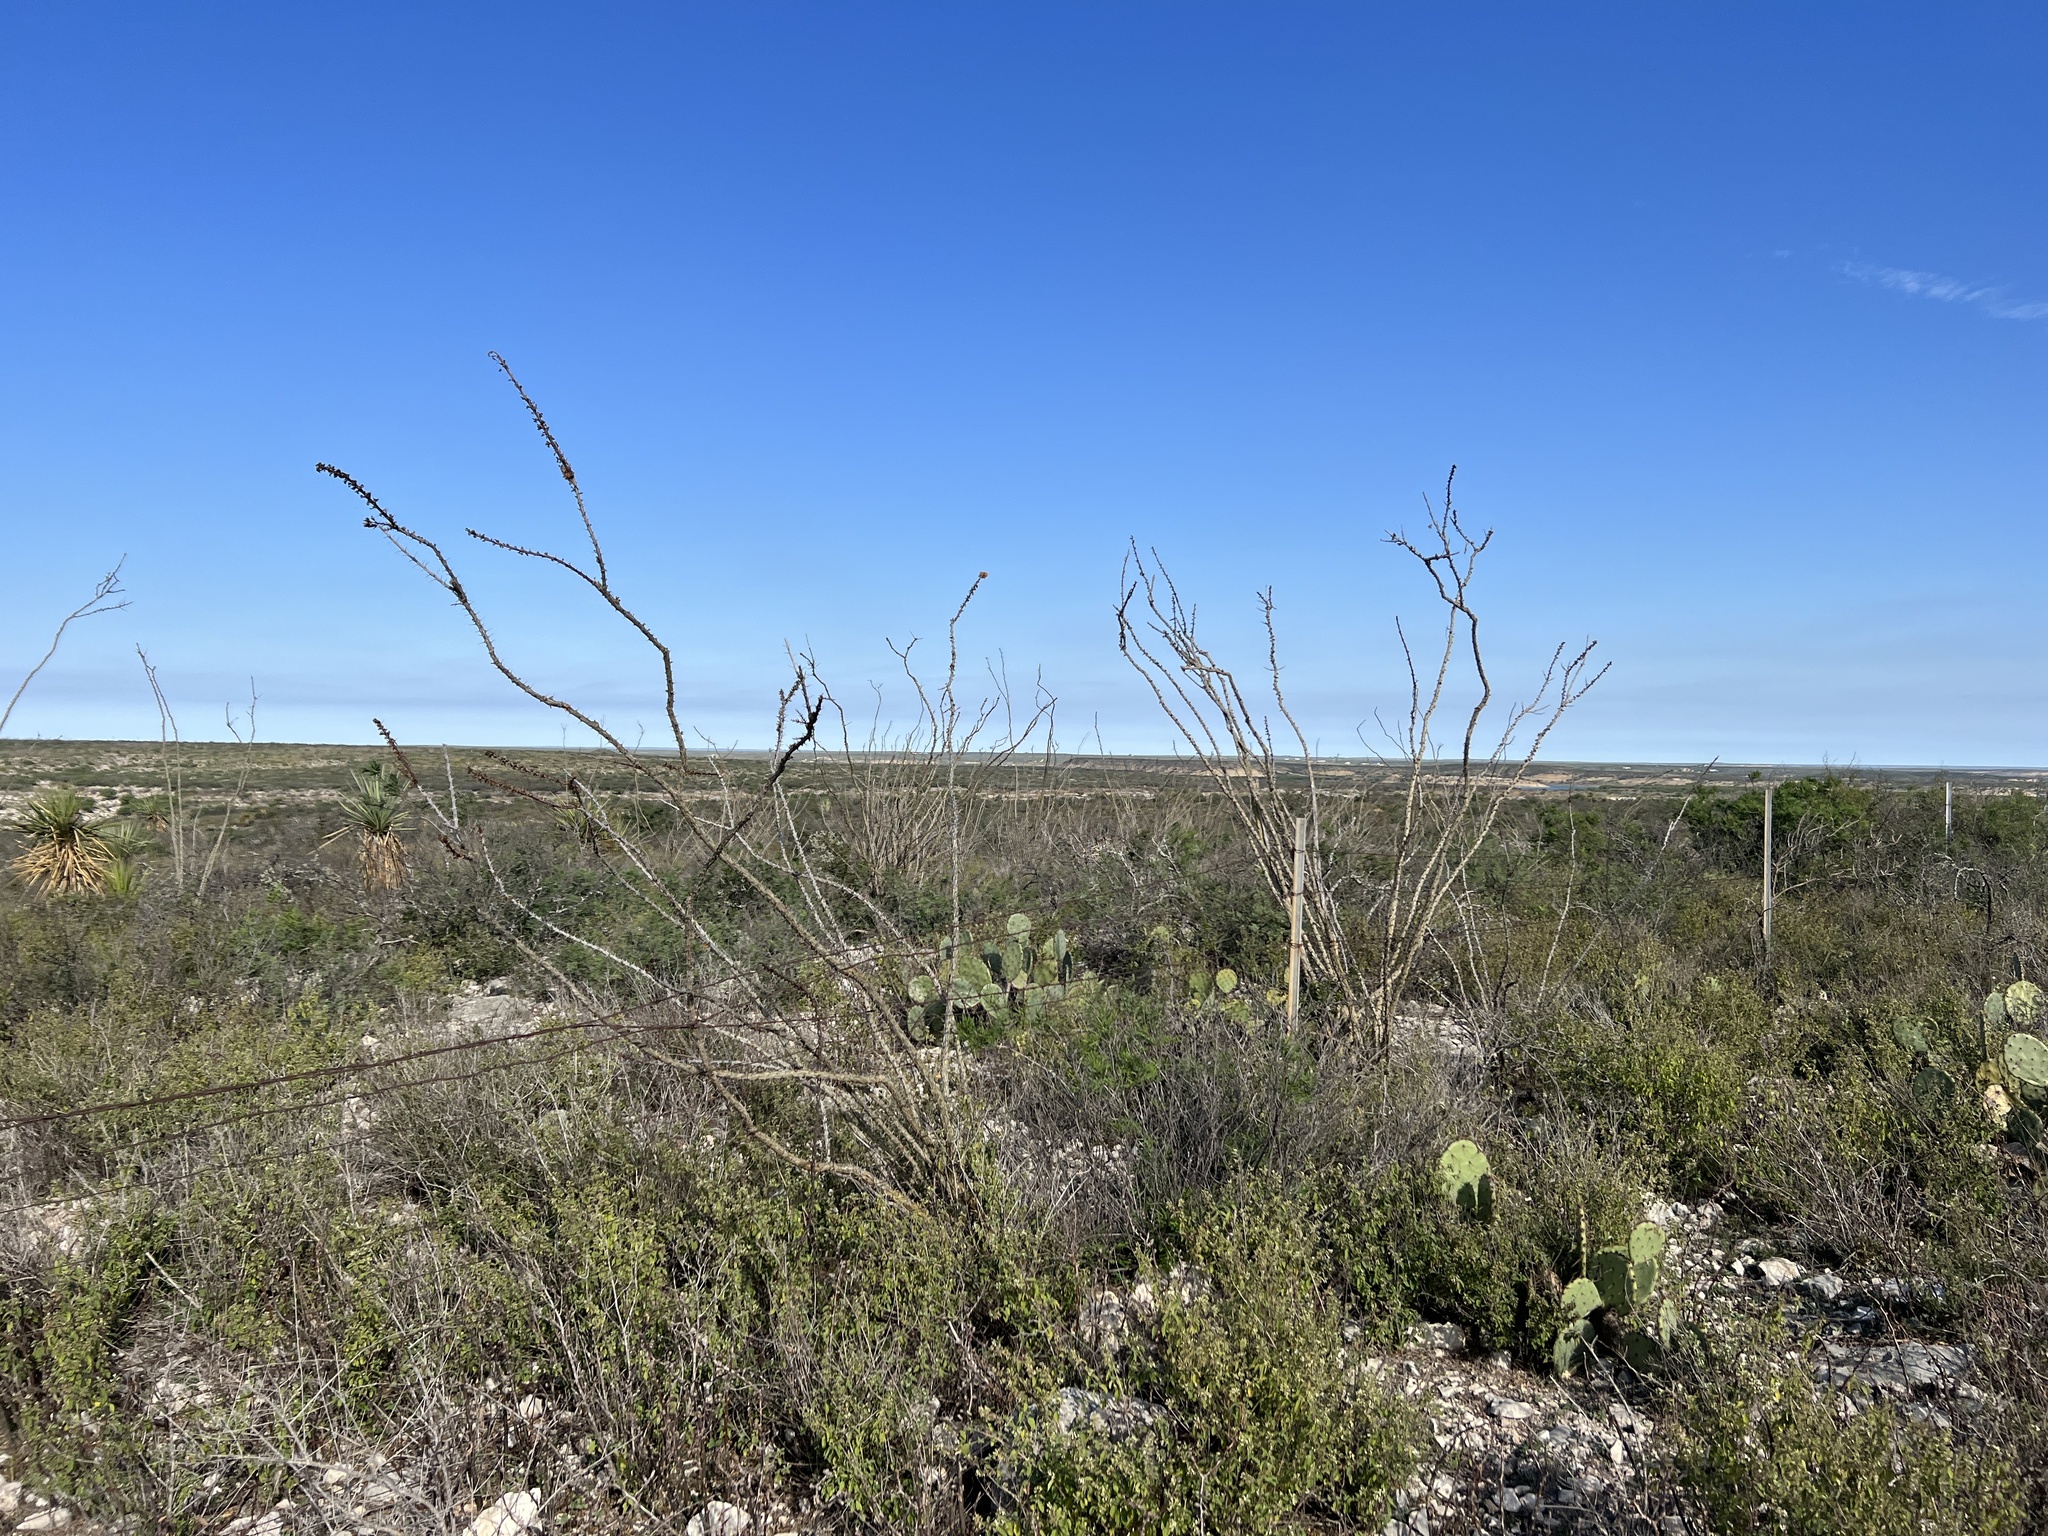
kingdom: Plantae
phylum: Tracheophyta
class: Magnoliopsida
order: Ericales
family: Fouquieriaceae
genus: Fouquieria
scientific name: Fouquieria splendens
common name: Vine-cactus
